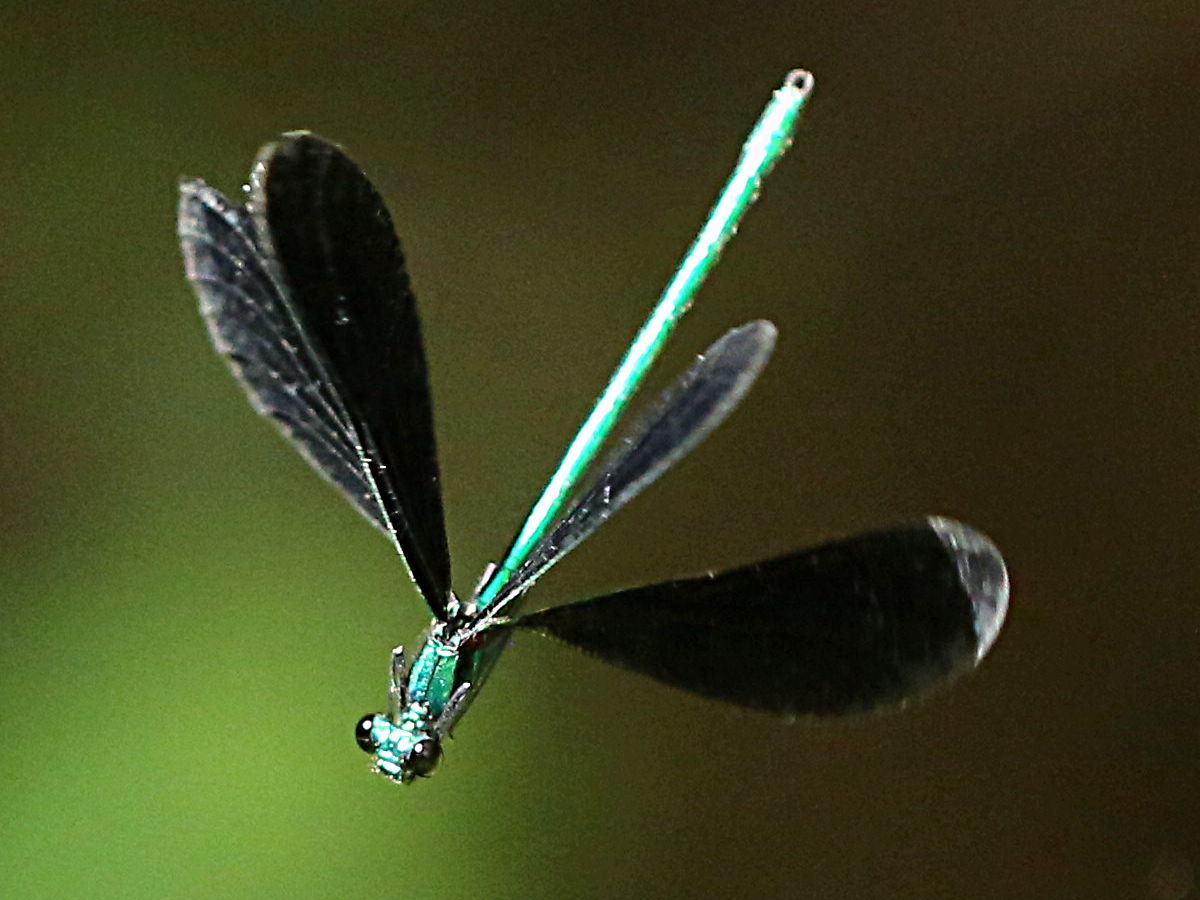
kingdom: Animalia
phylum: Arthropoda
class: Insecta
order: Odonata
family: Calopterygidae
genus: Calopteryx
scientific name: Calopteryx maculata
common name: Ebony jewelwing
